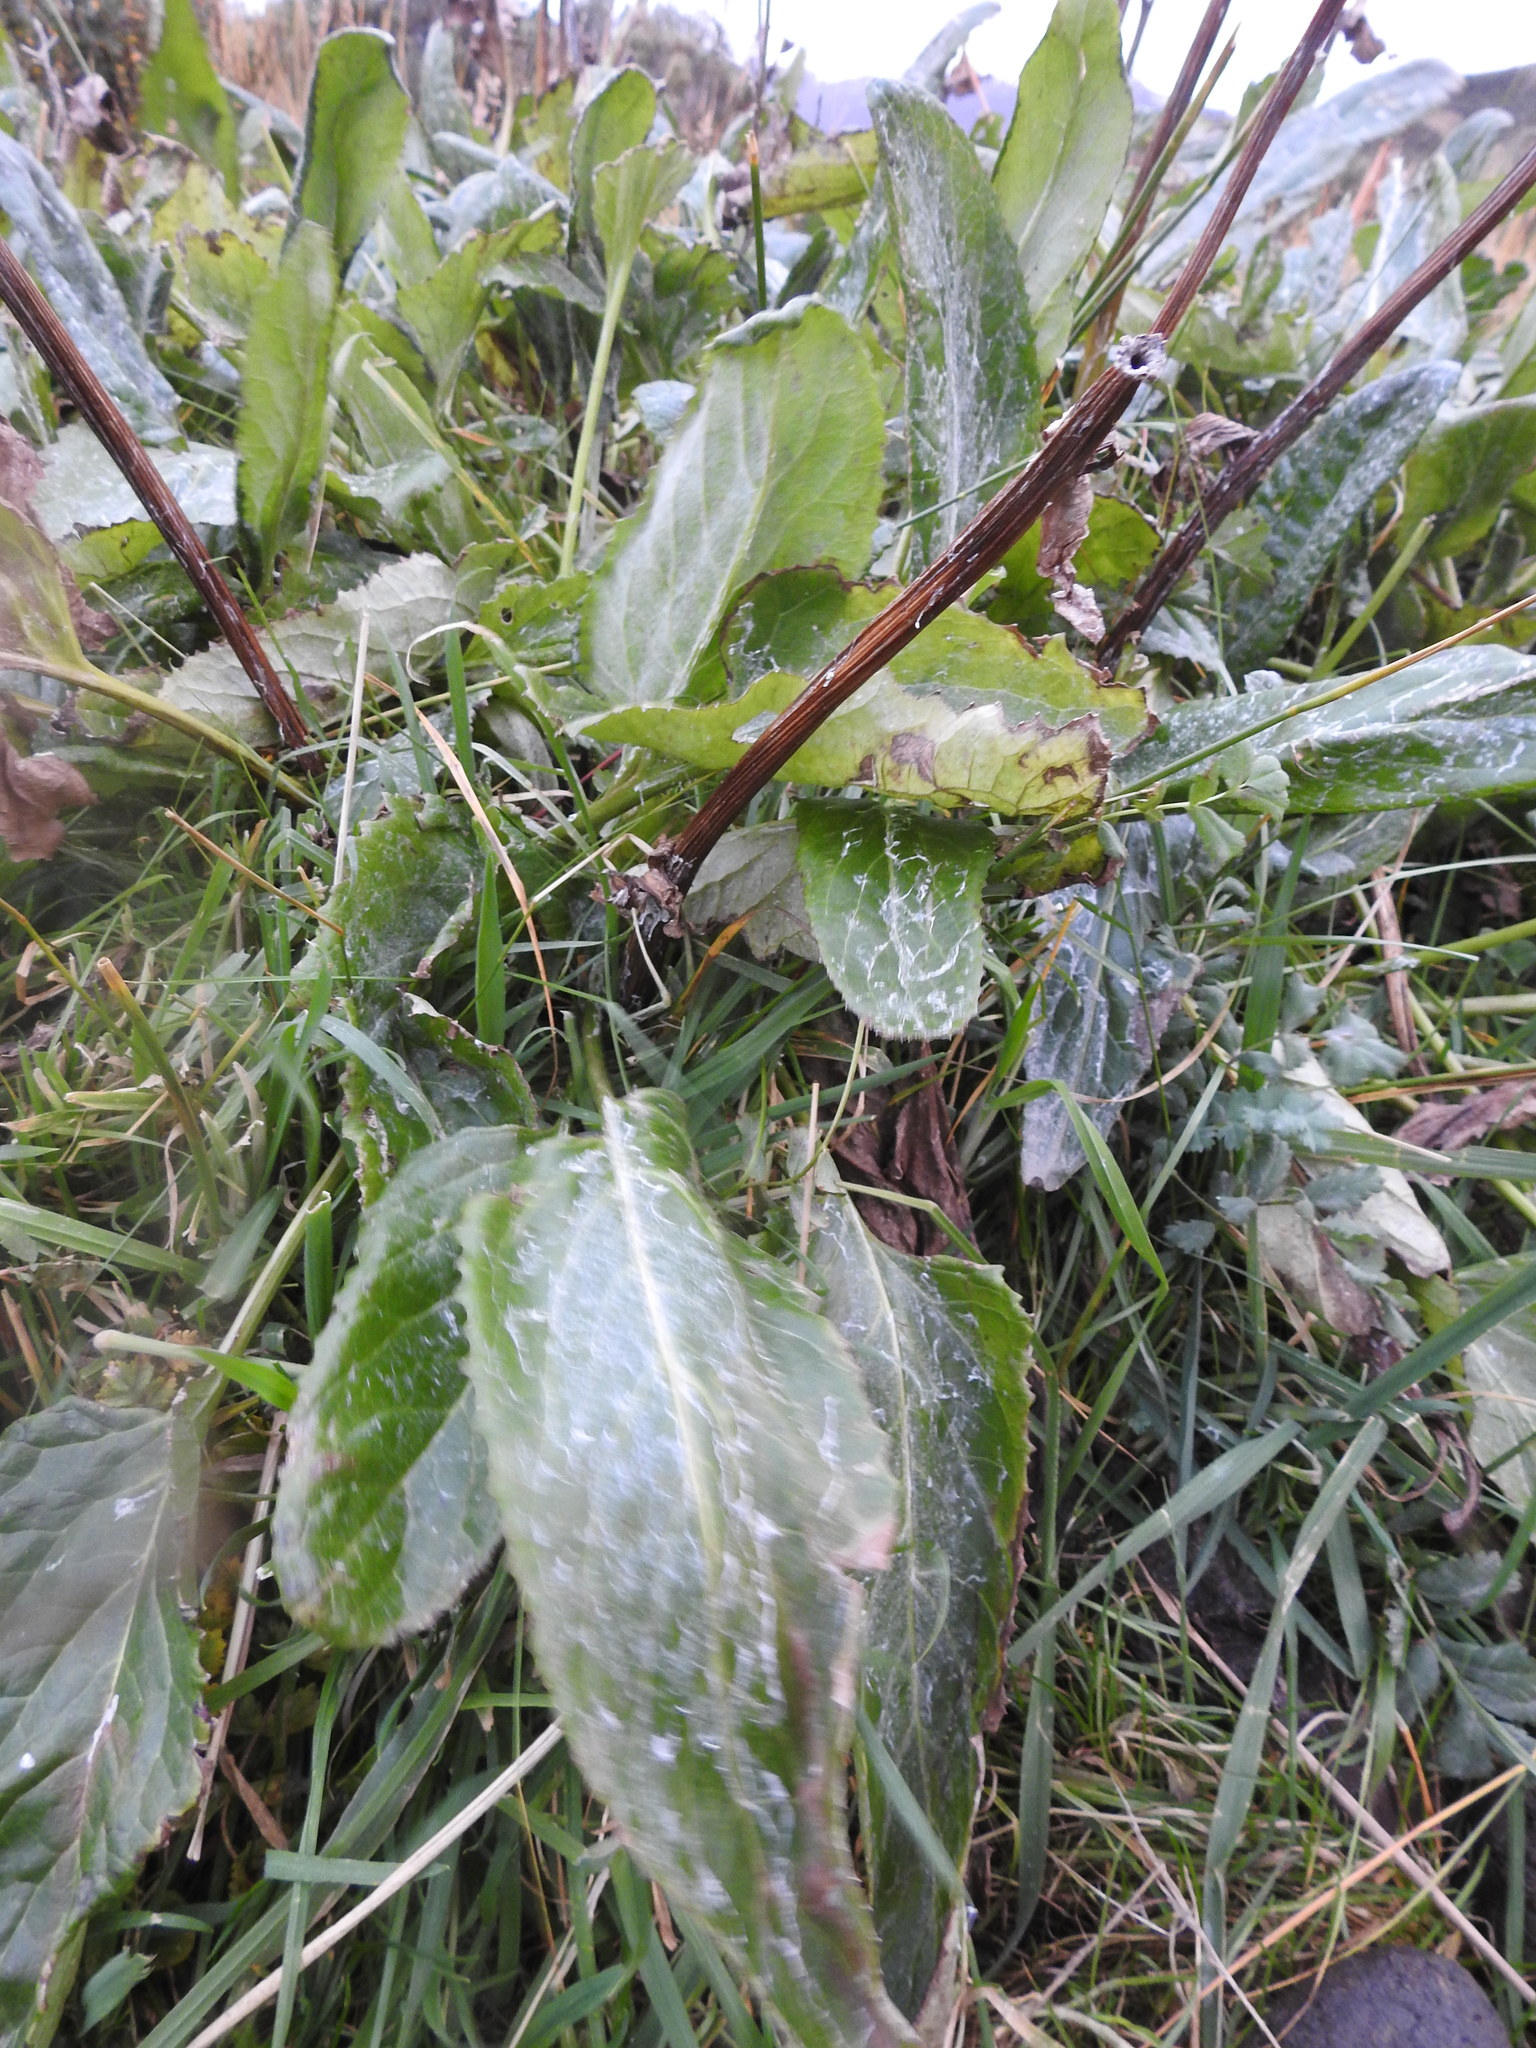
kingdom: Plantae
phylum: Tracheophyta
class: Magnoliopsida
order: Asterales
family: Asteraceae
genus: Senecio
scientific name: Senecio smithii
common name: Magellan ragwort
